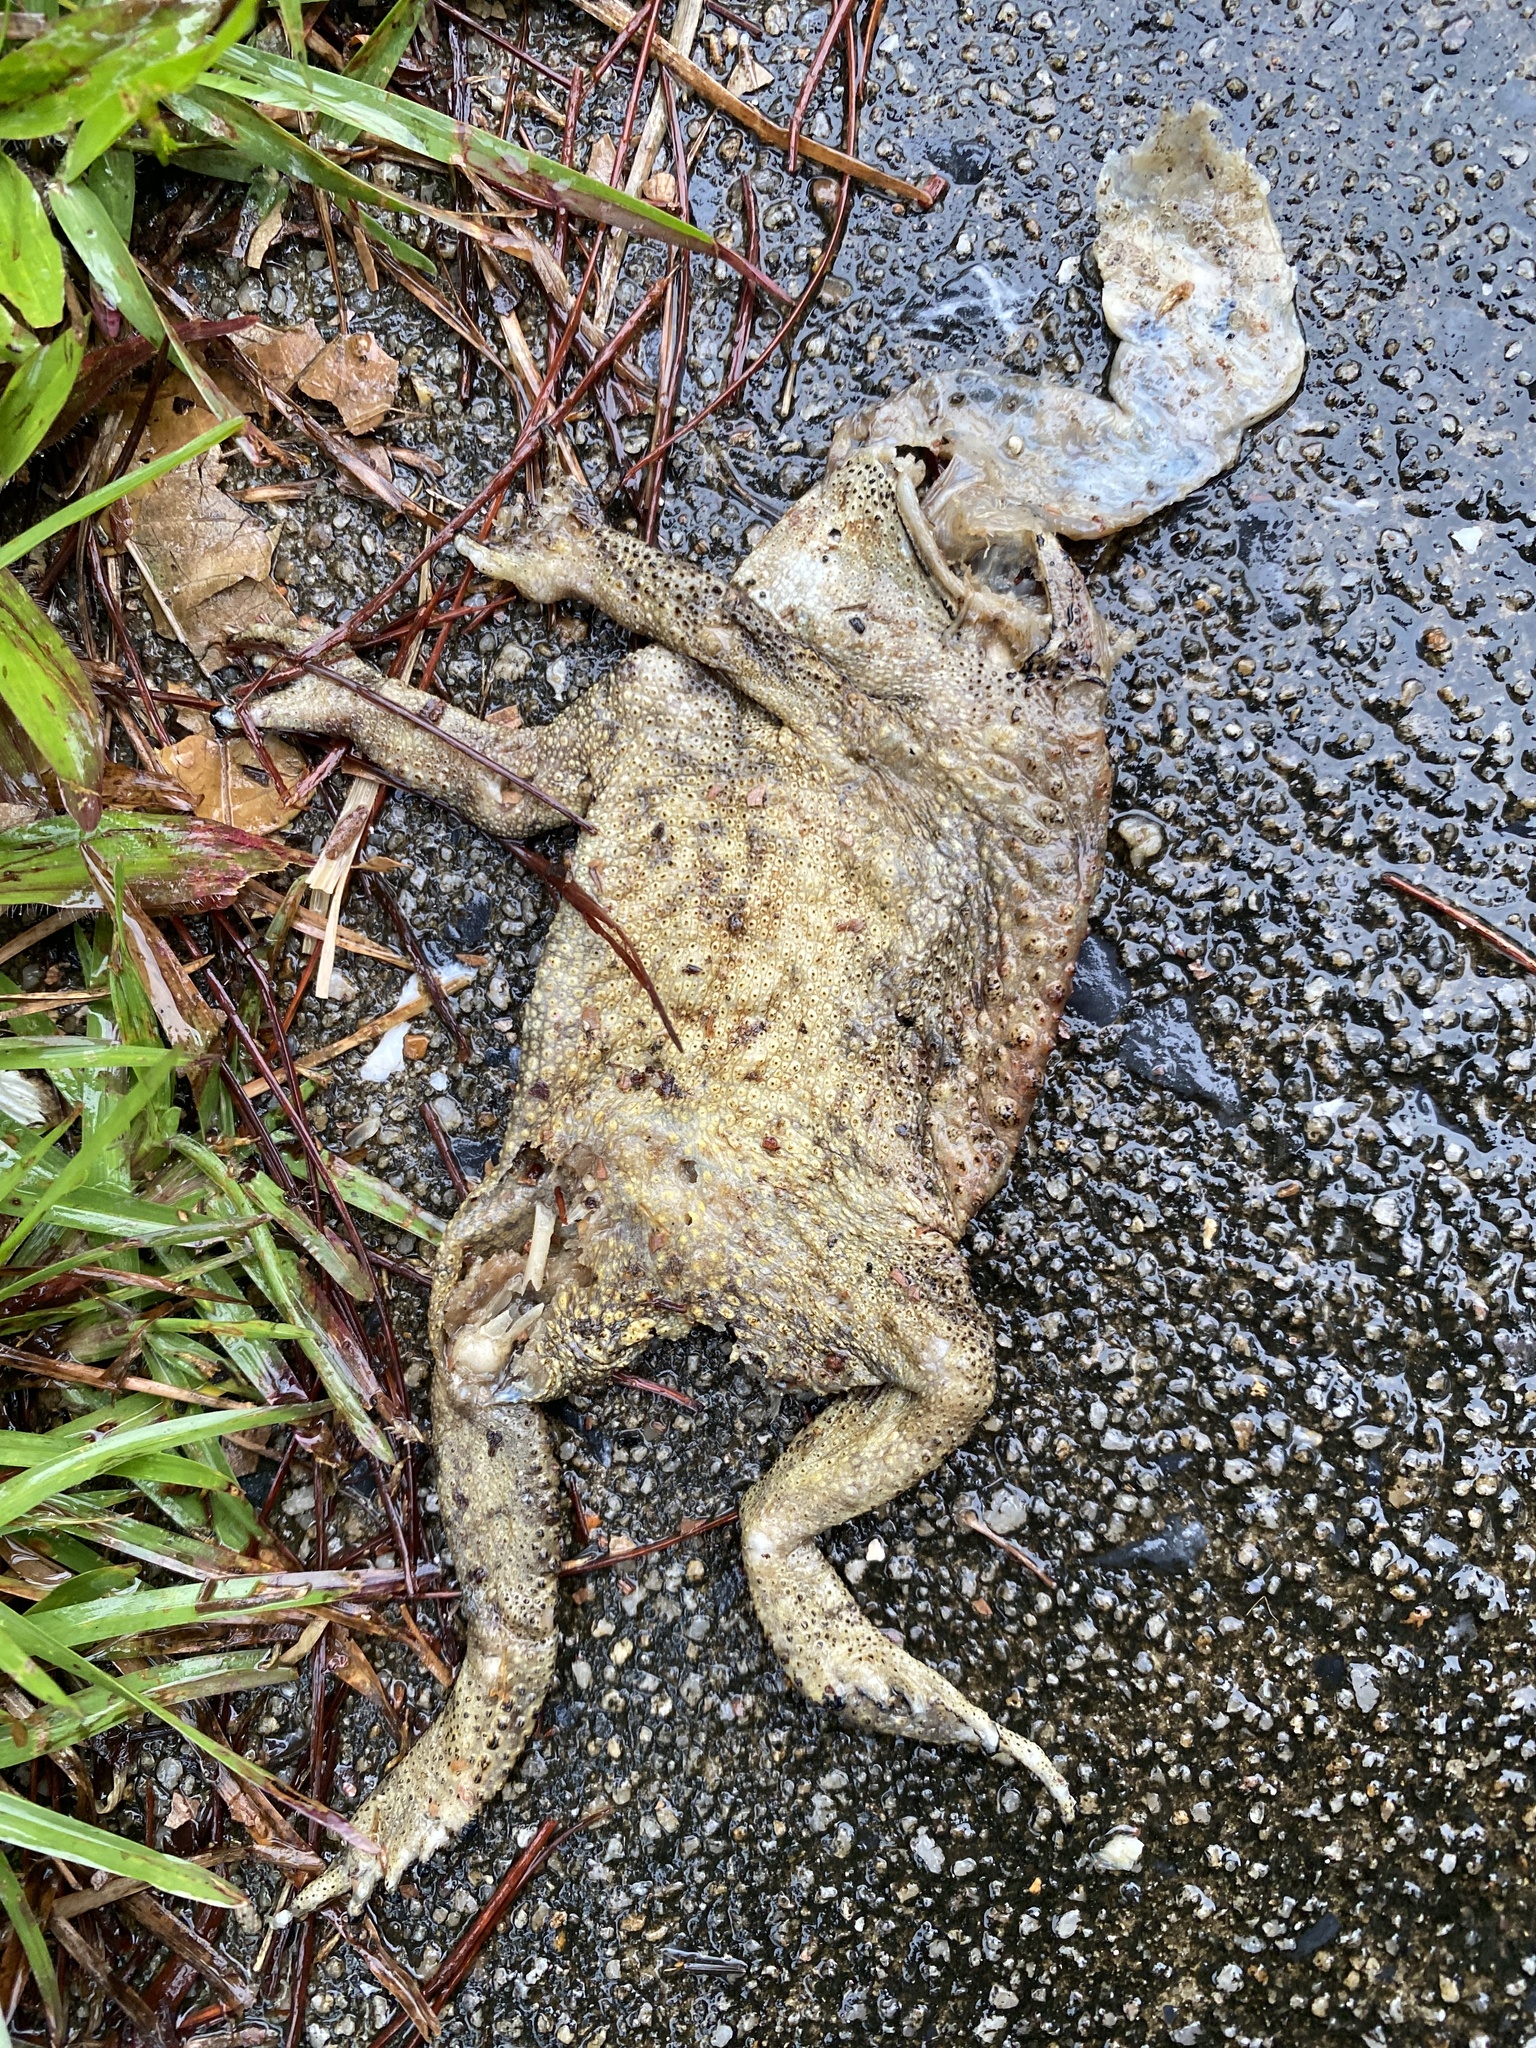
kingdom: Animalia
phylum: Chordata
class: Amphibia
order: Anura
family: Bufonidae
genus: Duttaphrynus
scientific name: Duttaphrynus melanostictus
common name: Common sunda toad
